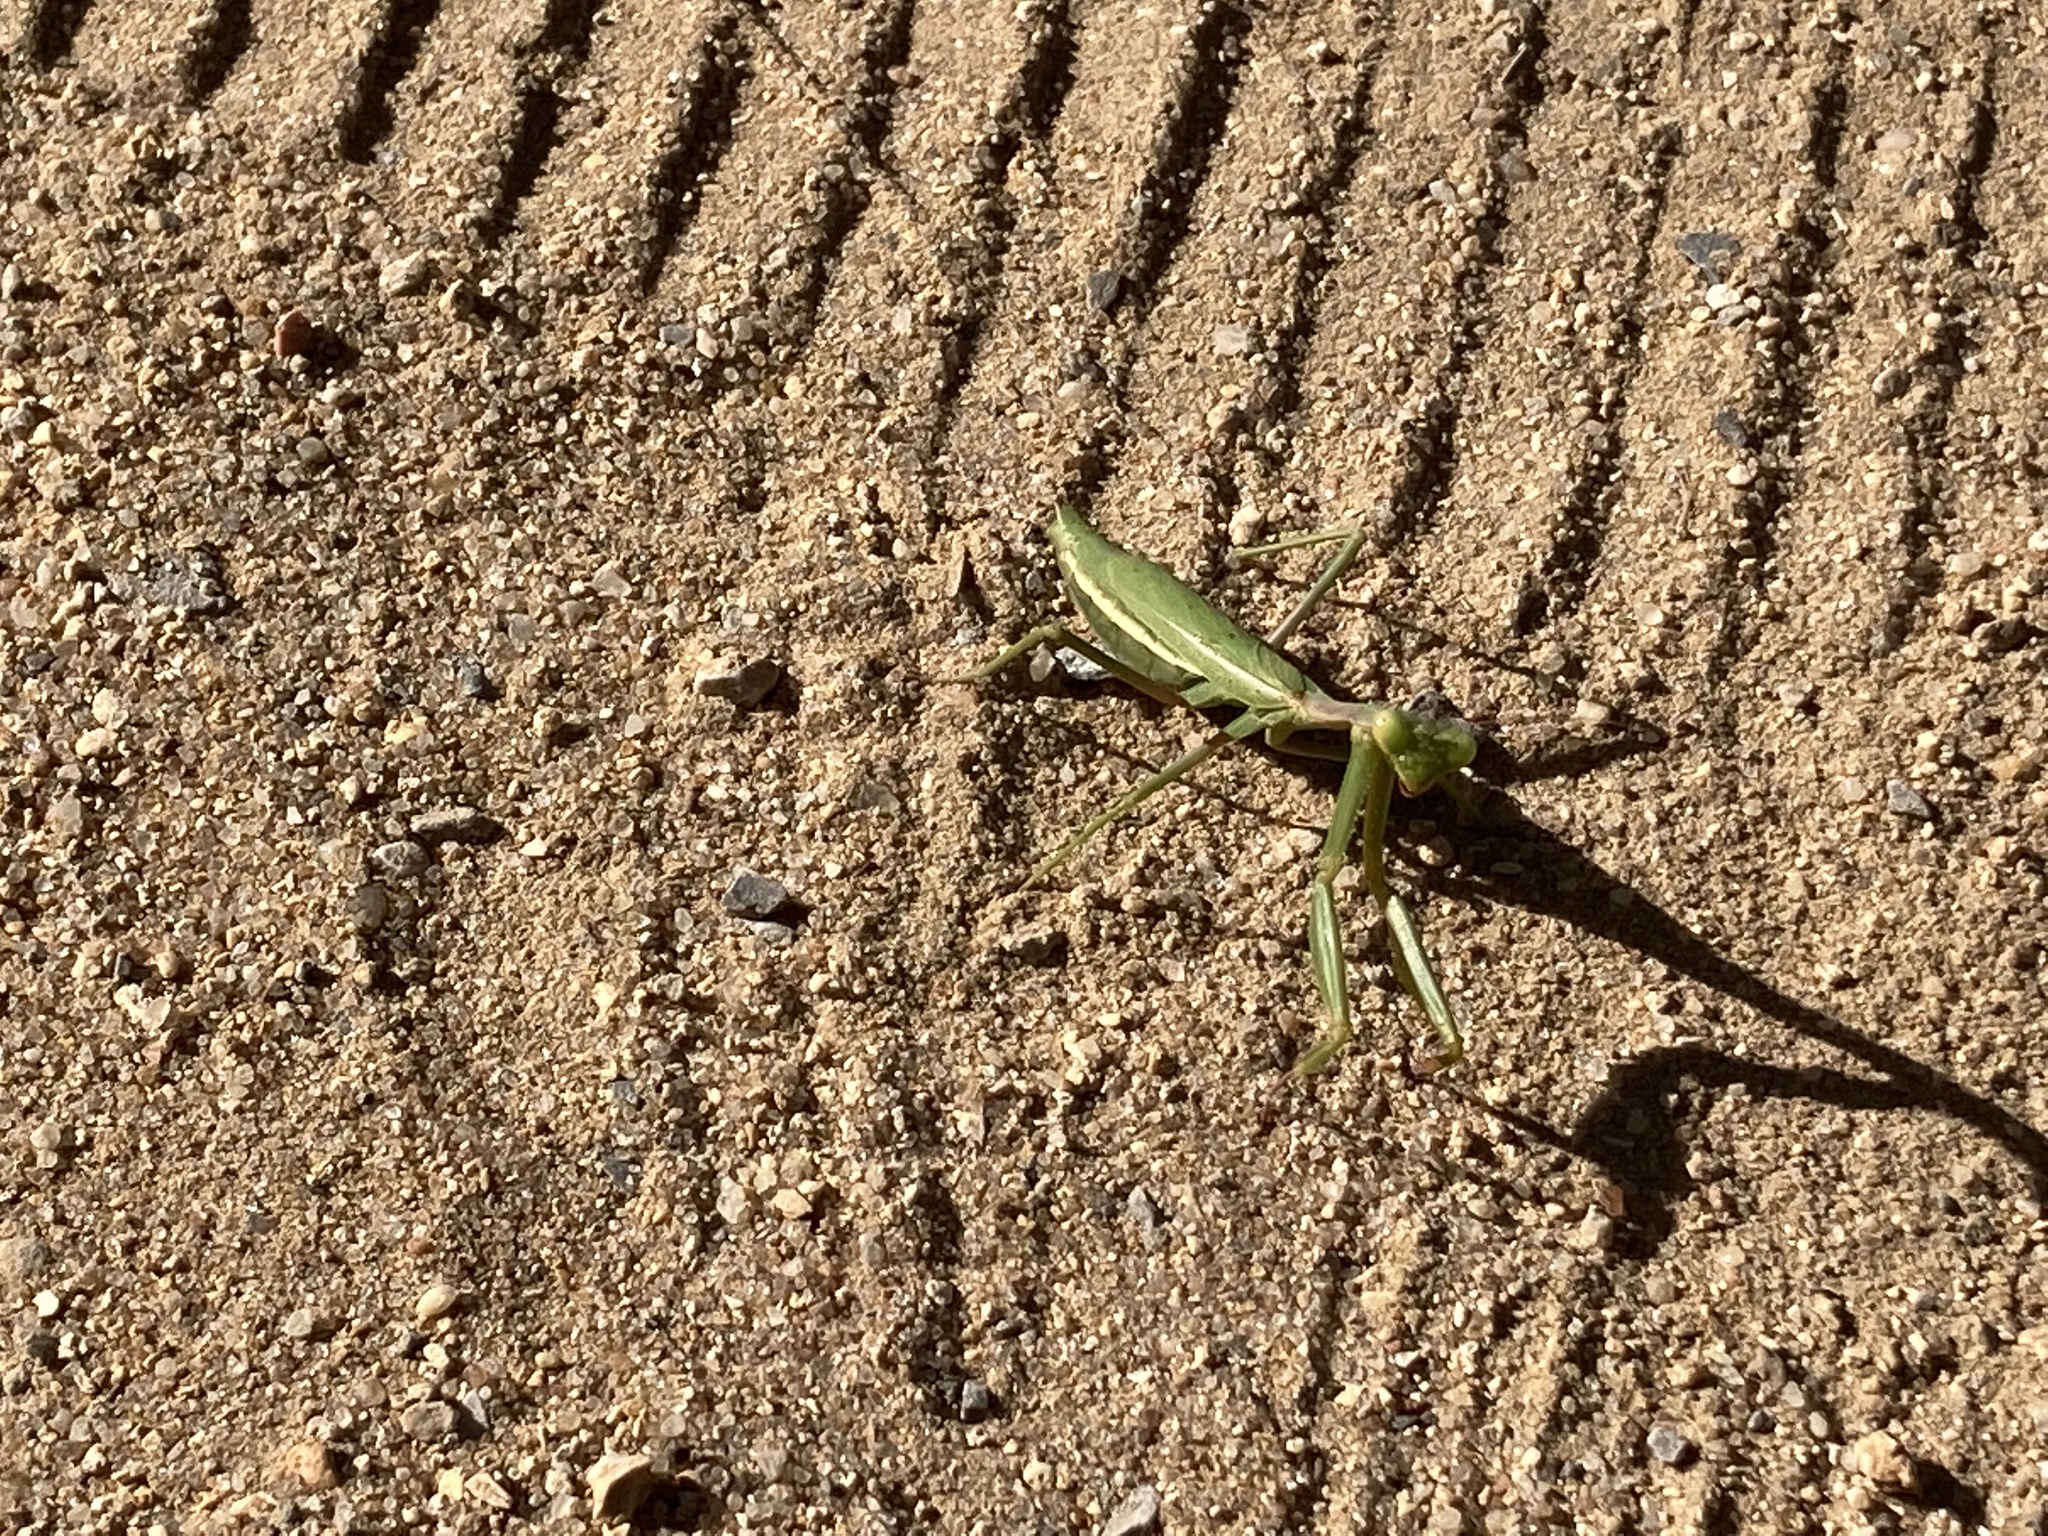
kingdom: Animalia
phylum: Arthropoda
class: Insecta
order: Mantodea
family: Eremiaphilidae
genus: Iris
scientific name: Iris oratoria
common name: Mediterranean mantis
